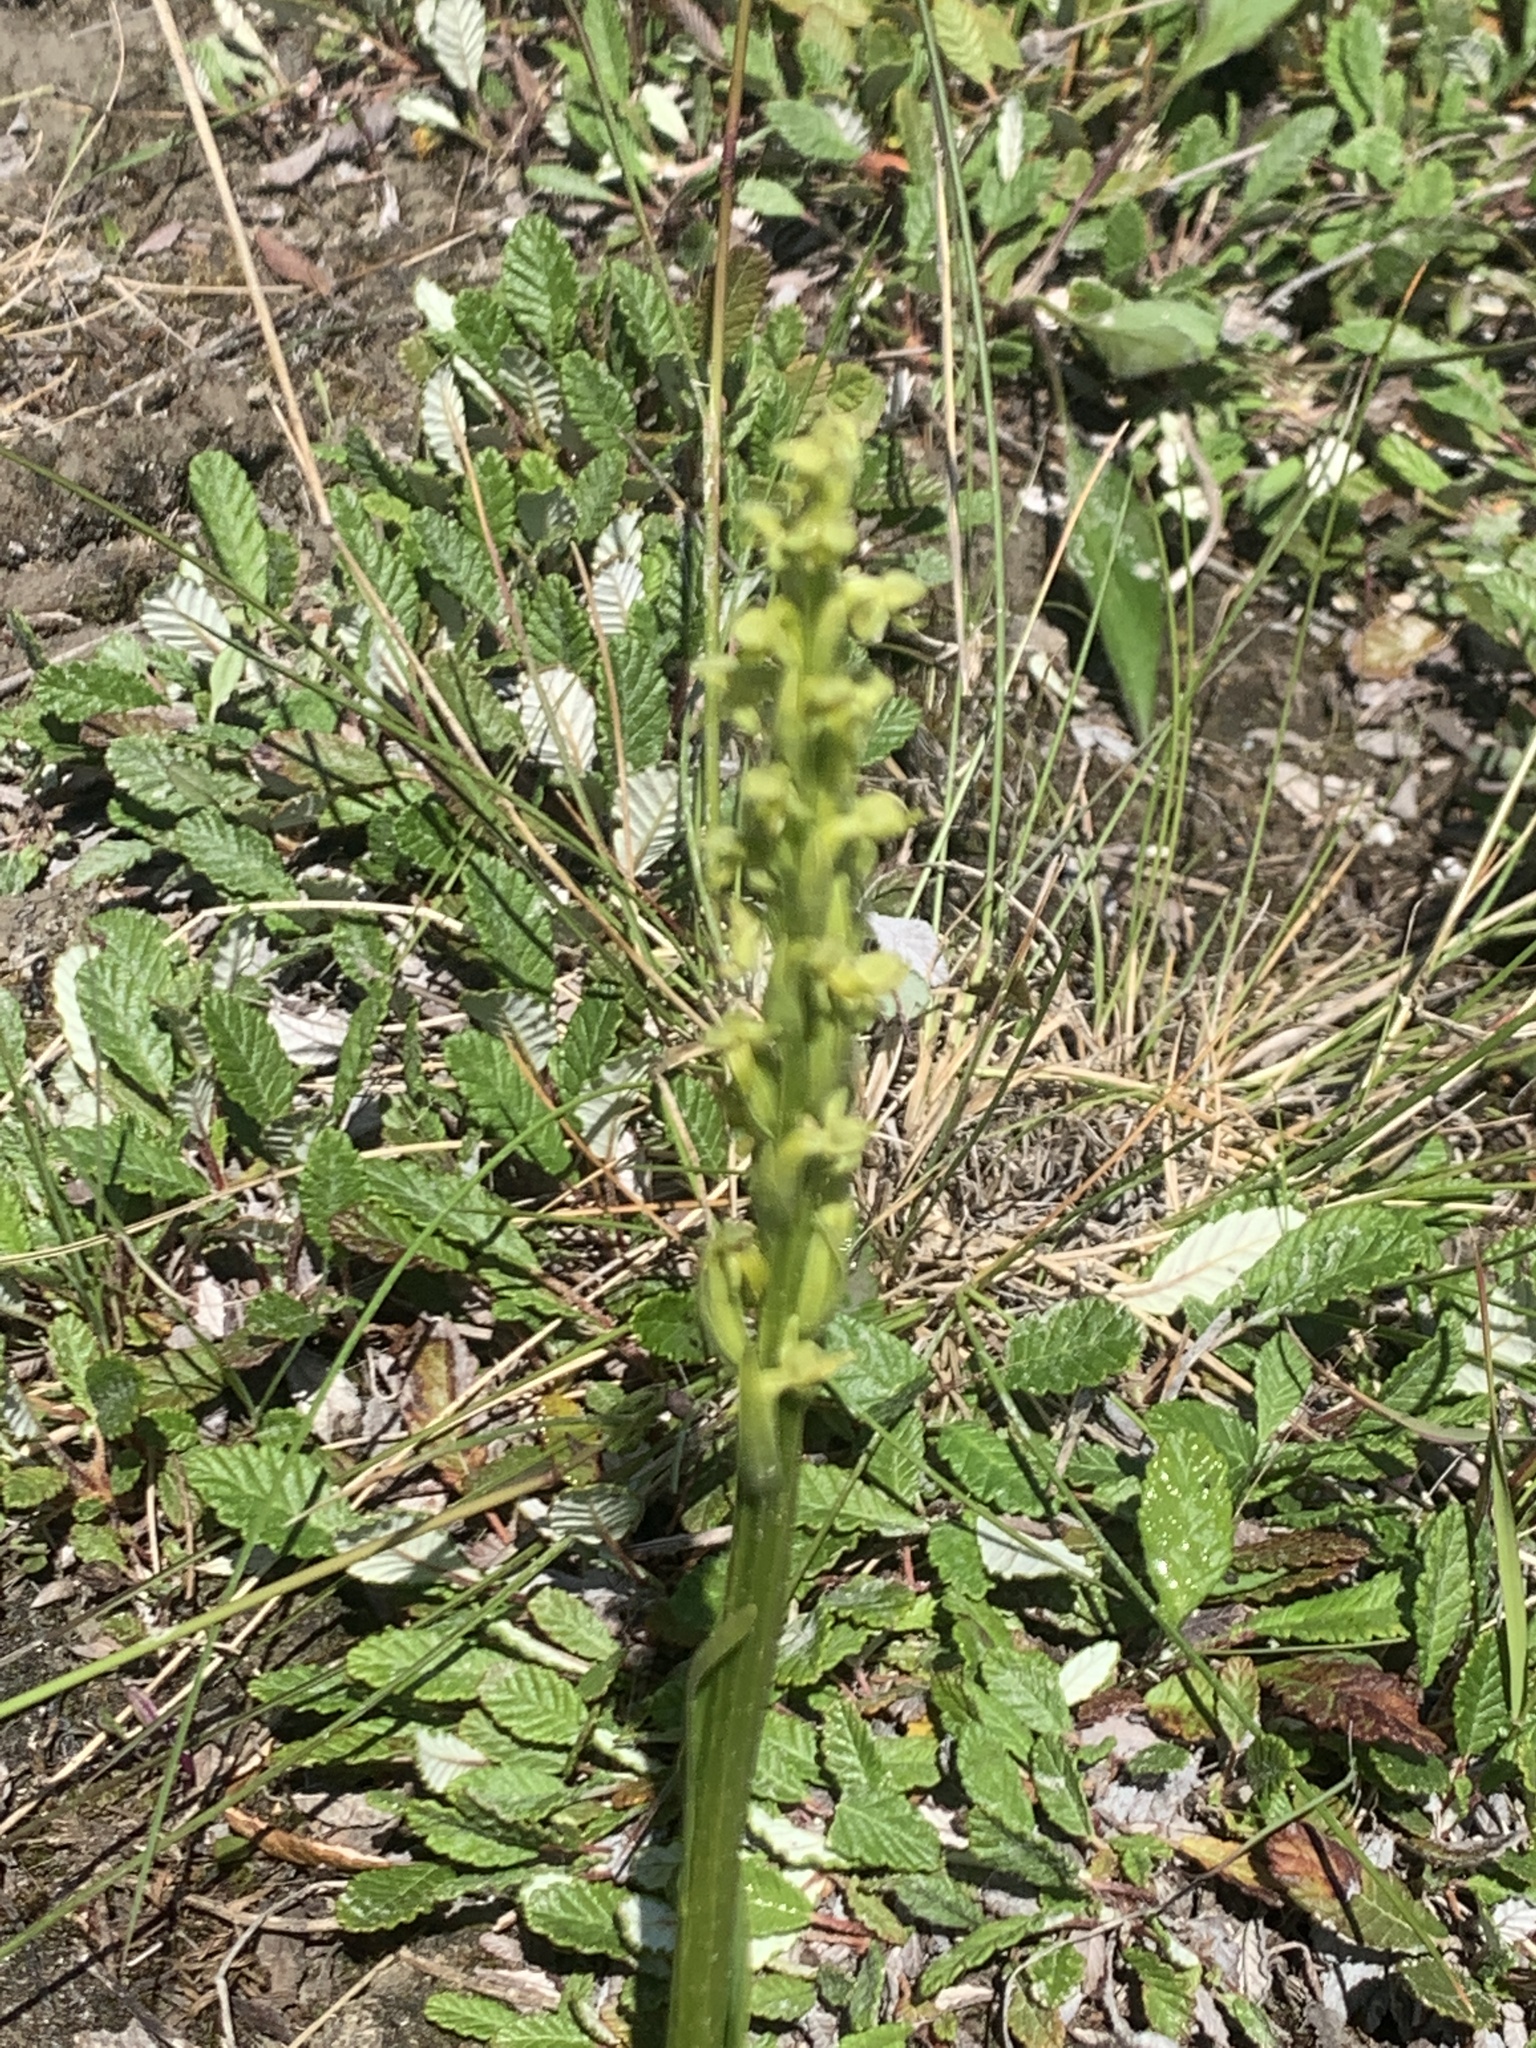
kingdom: Plantae
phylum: Tracheophyta
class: Liliopsida
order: Asparagales
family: Orchidaceae
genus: Platanthera
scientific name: Platanthera aquilonis
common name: Northern green orchid
